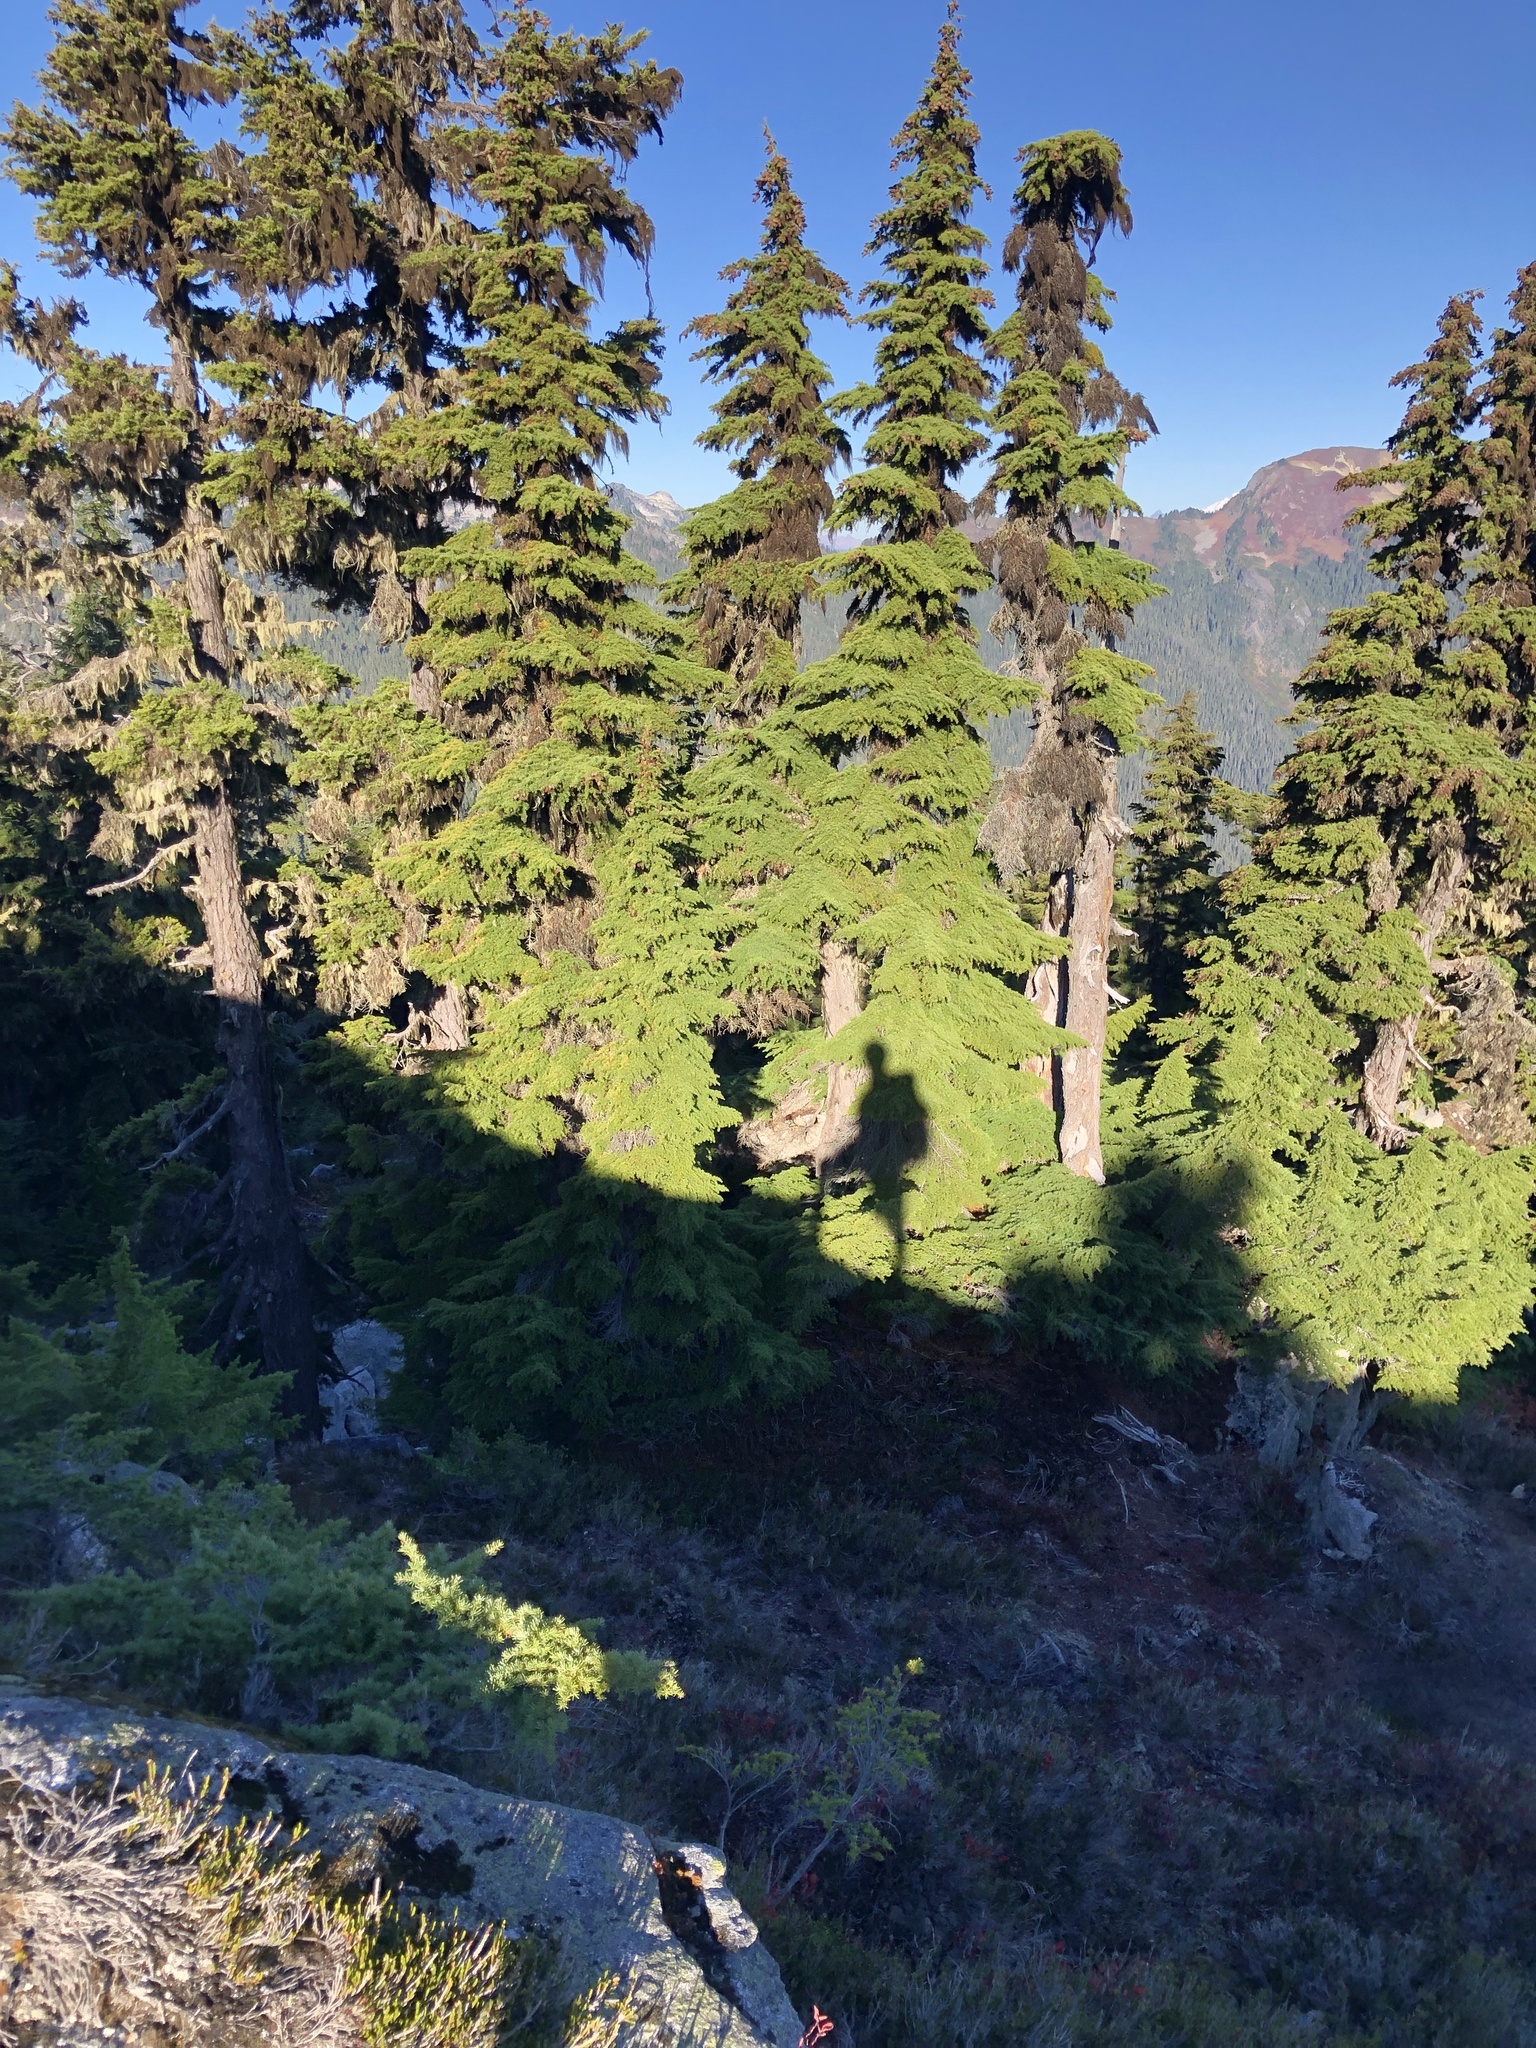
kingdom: Plantae
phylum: Tracheophyta
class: Pinopsida
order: Pinales
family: Pinaceae
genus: Tsuga
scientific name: Tsuga mertensiana
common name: Mountain hemlock
